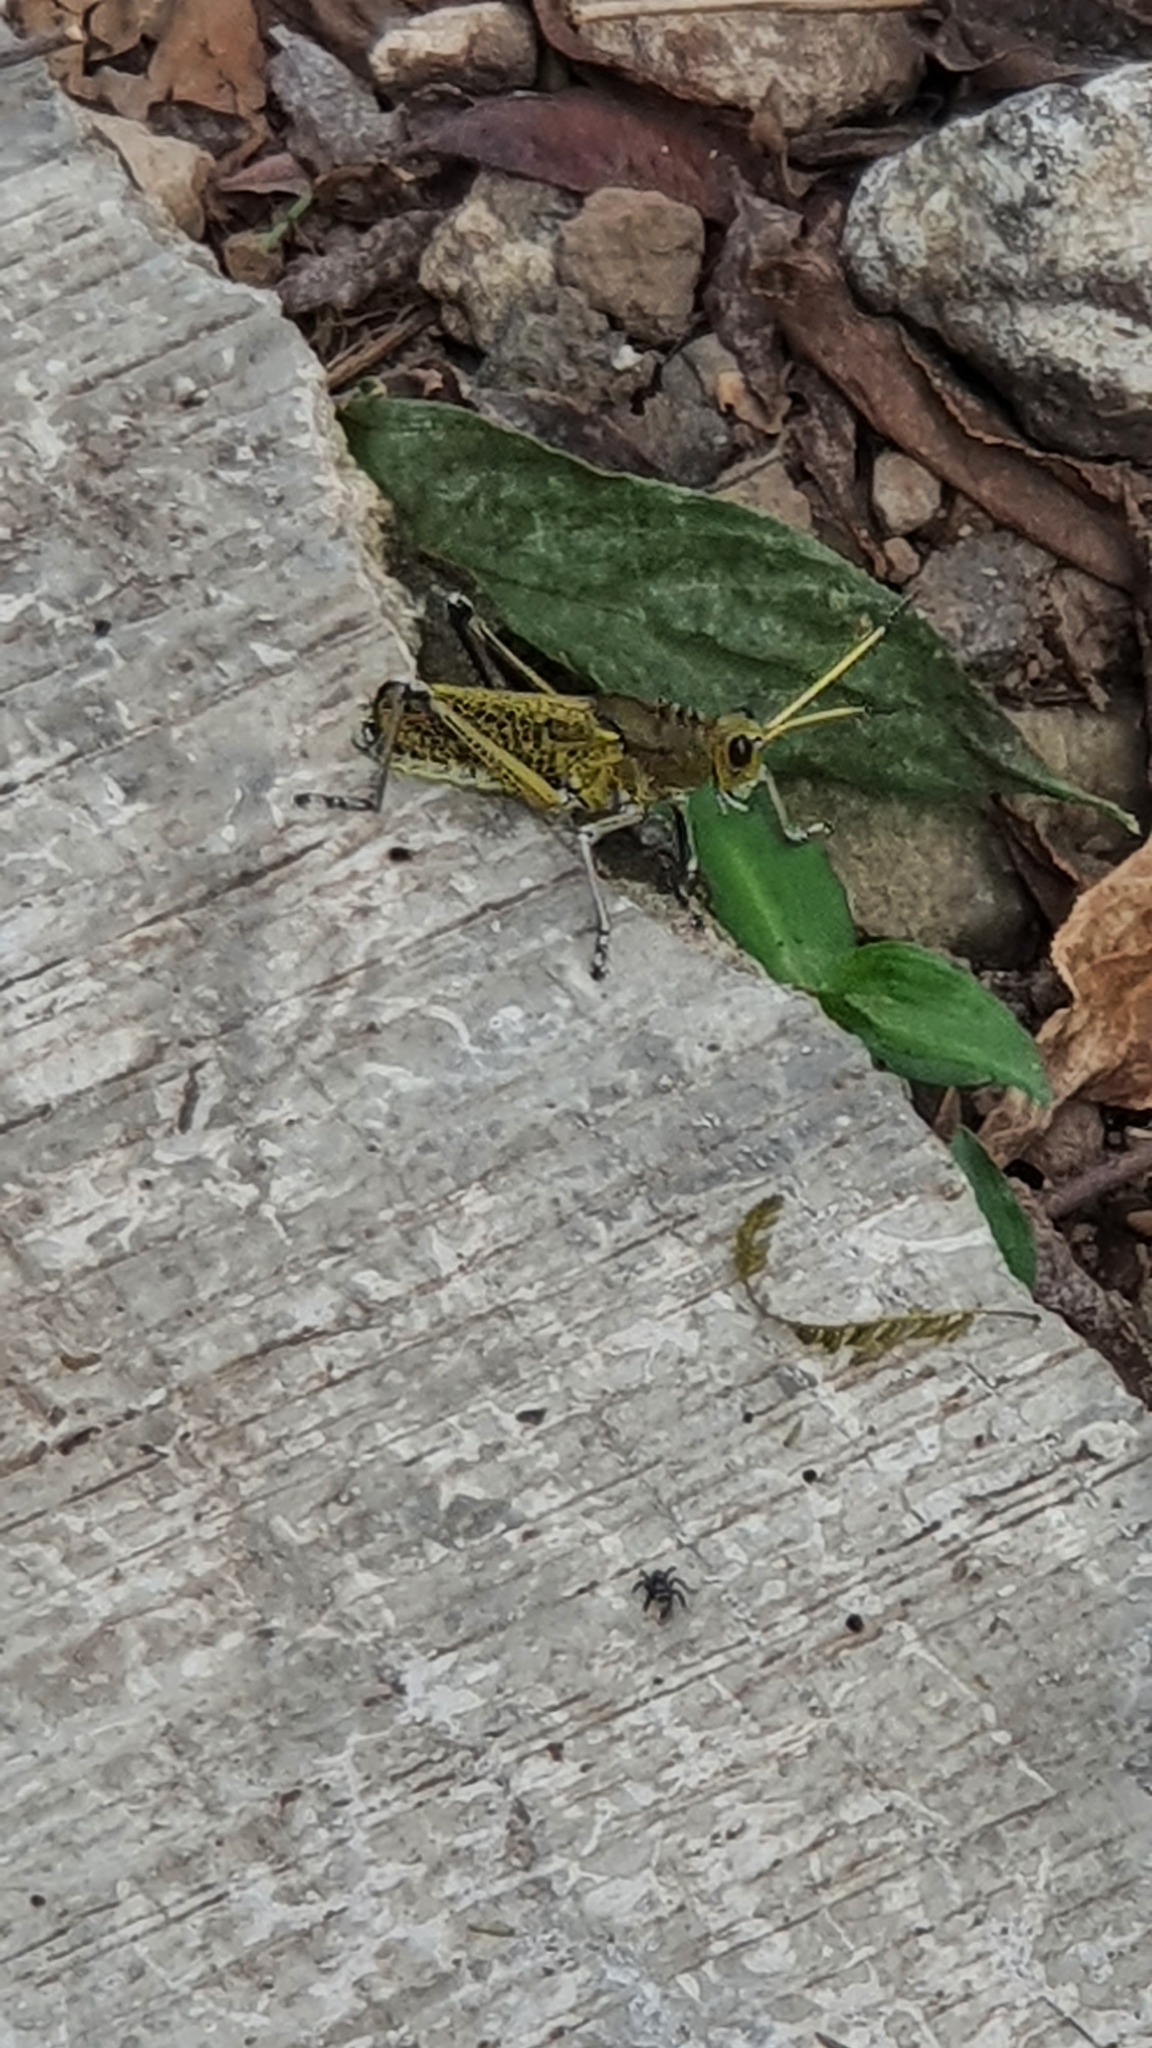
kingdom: Animalia
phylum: Arthropoda
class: Insecta
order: Orthoptera
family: Romaleidae
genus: Romalea
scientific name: Romalea
